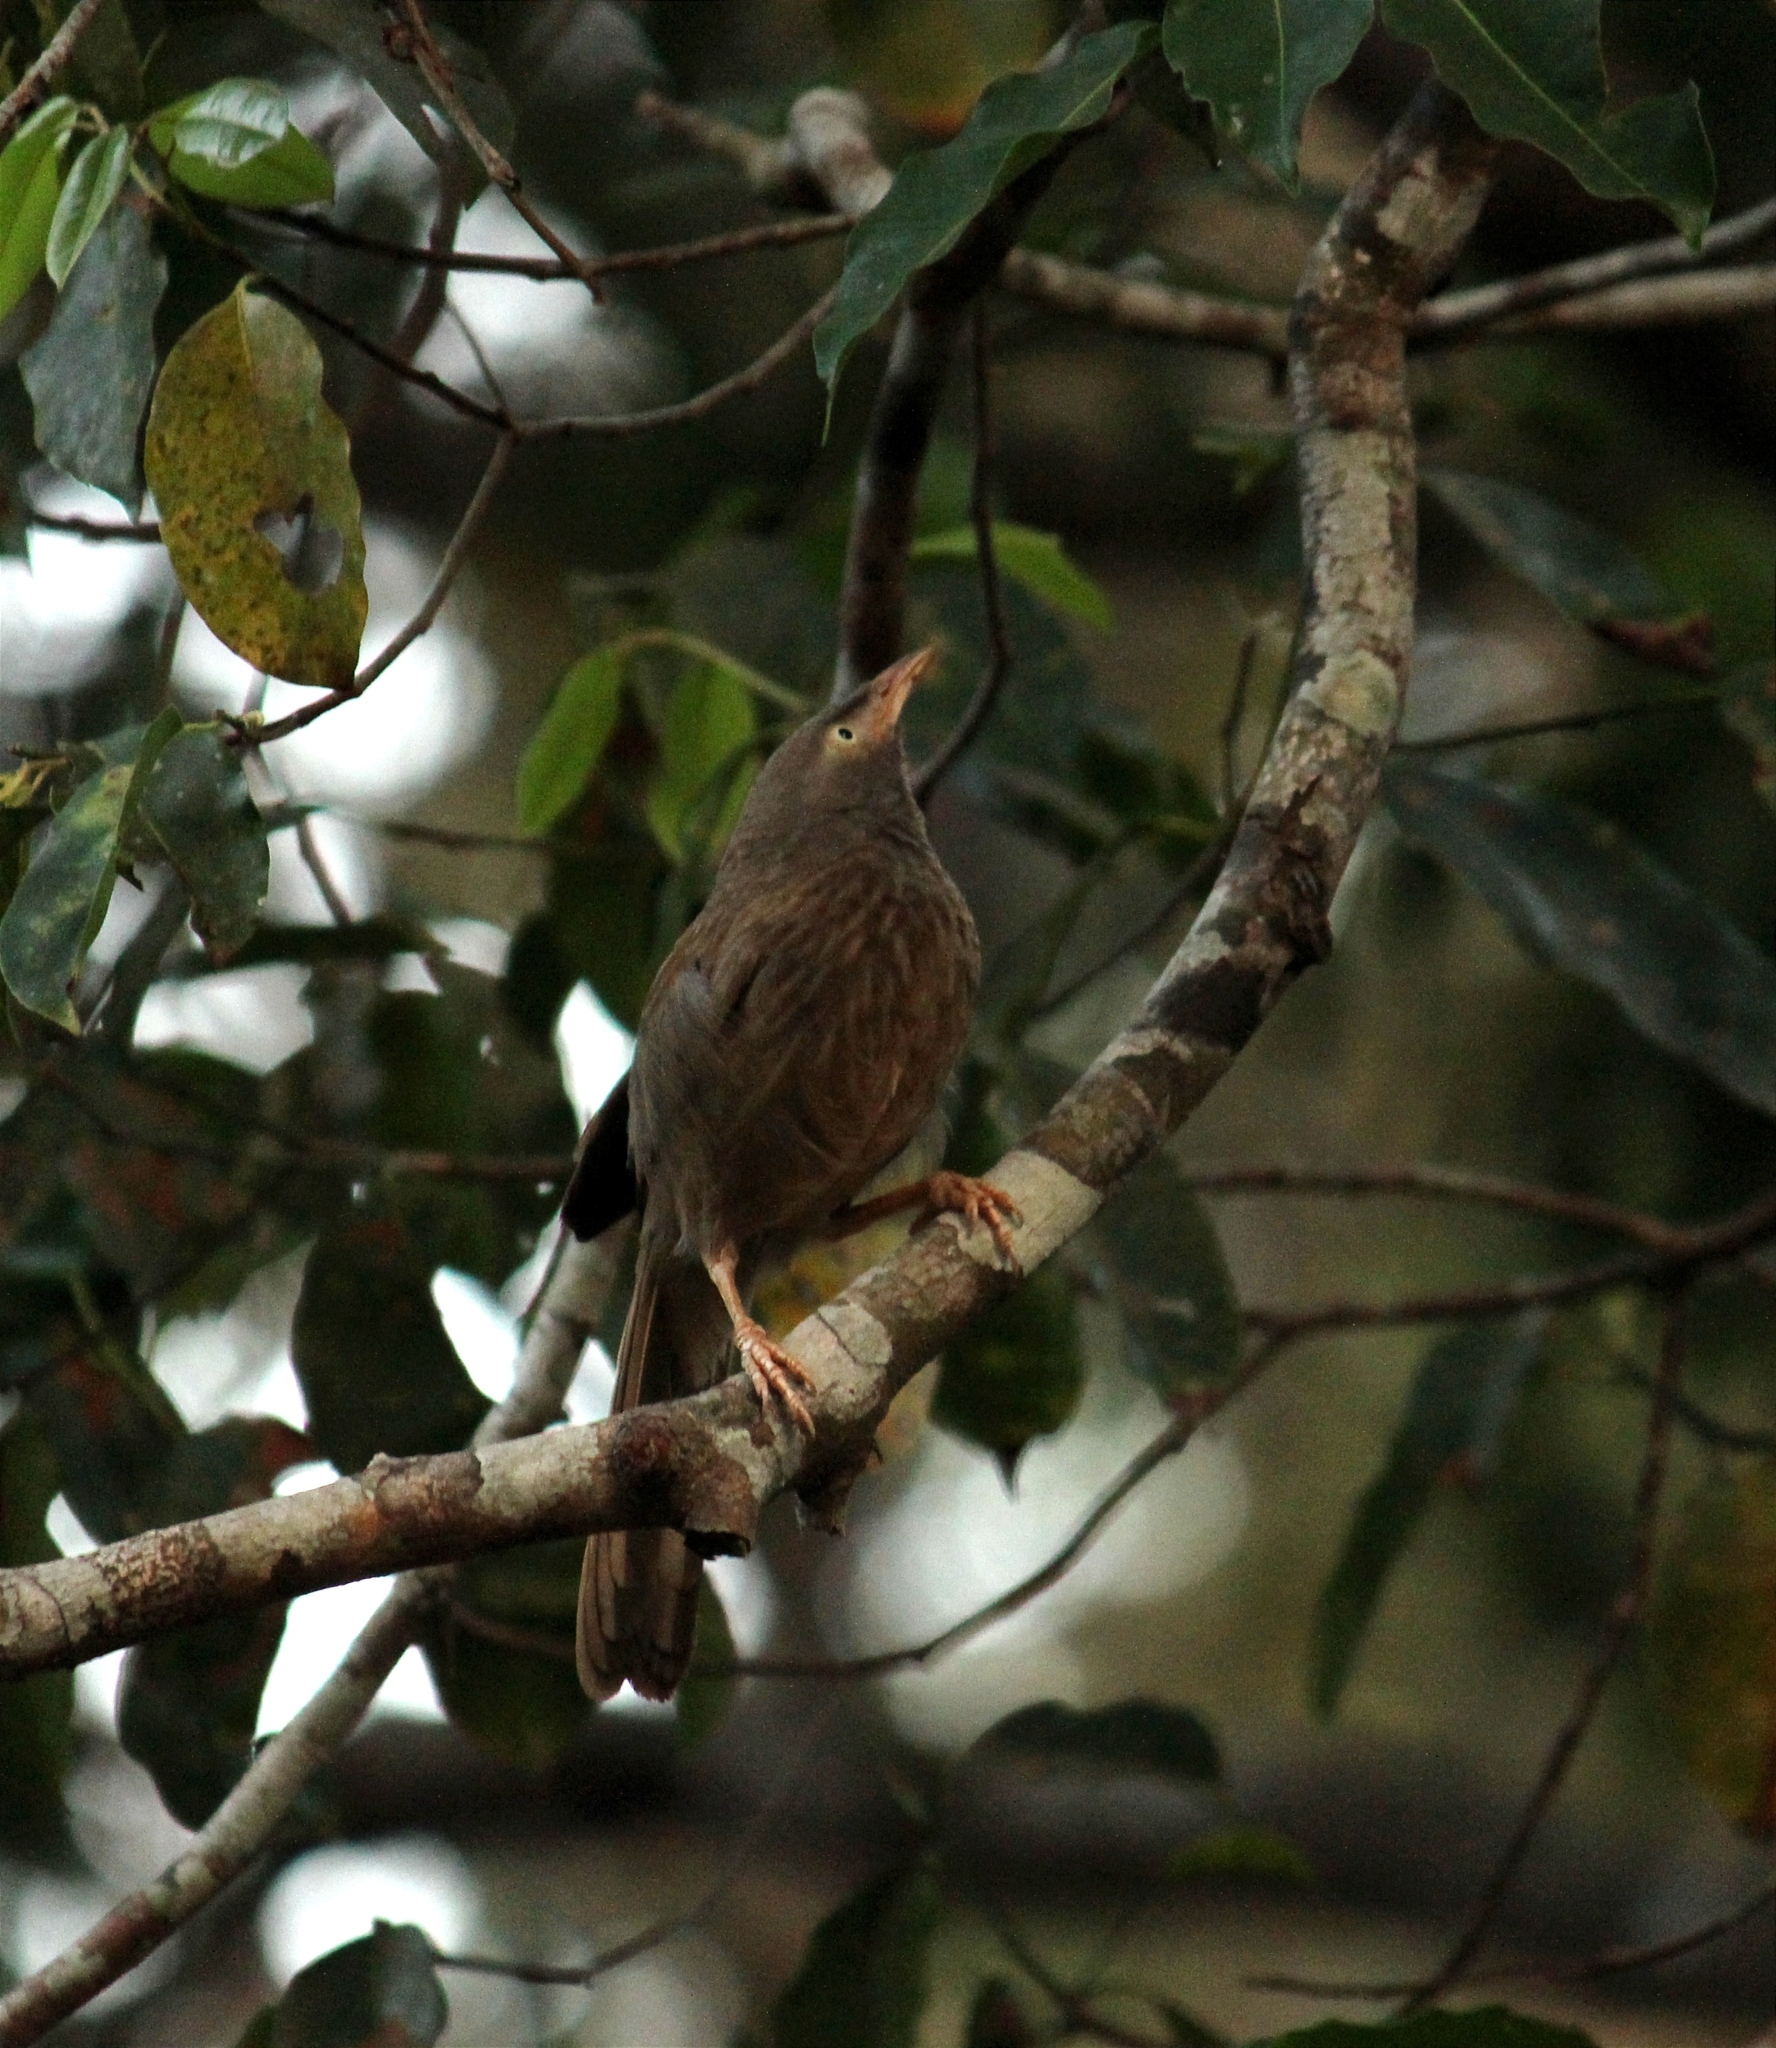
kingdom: Animalia
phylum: Chordata
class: Aves
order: Passeriformes
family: Leiothrichidae
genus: Turdoides
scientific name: Turdoides striata
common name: Jungle babbler
